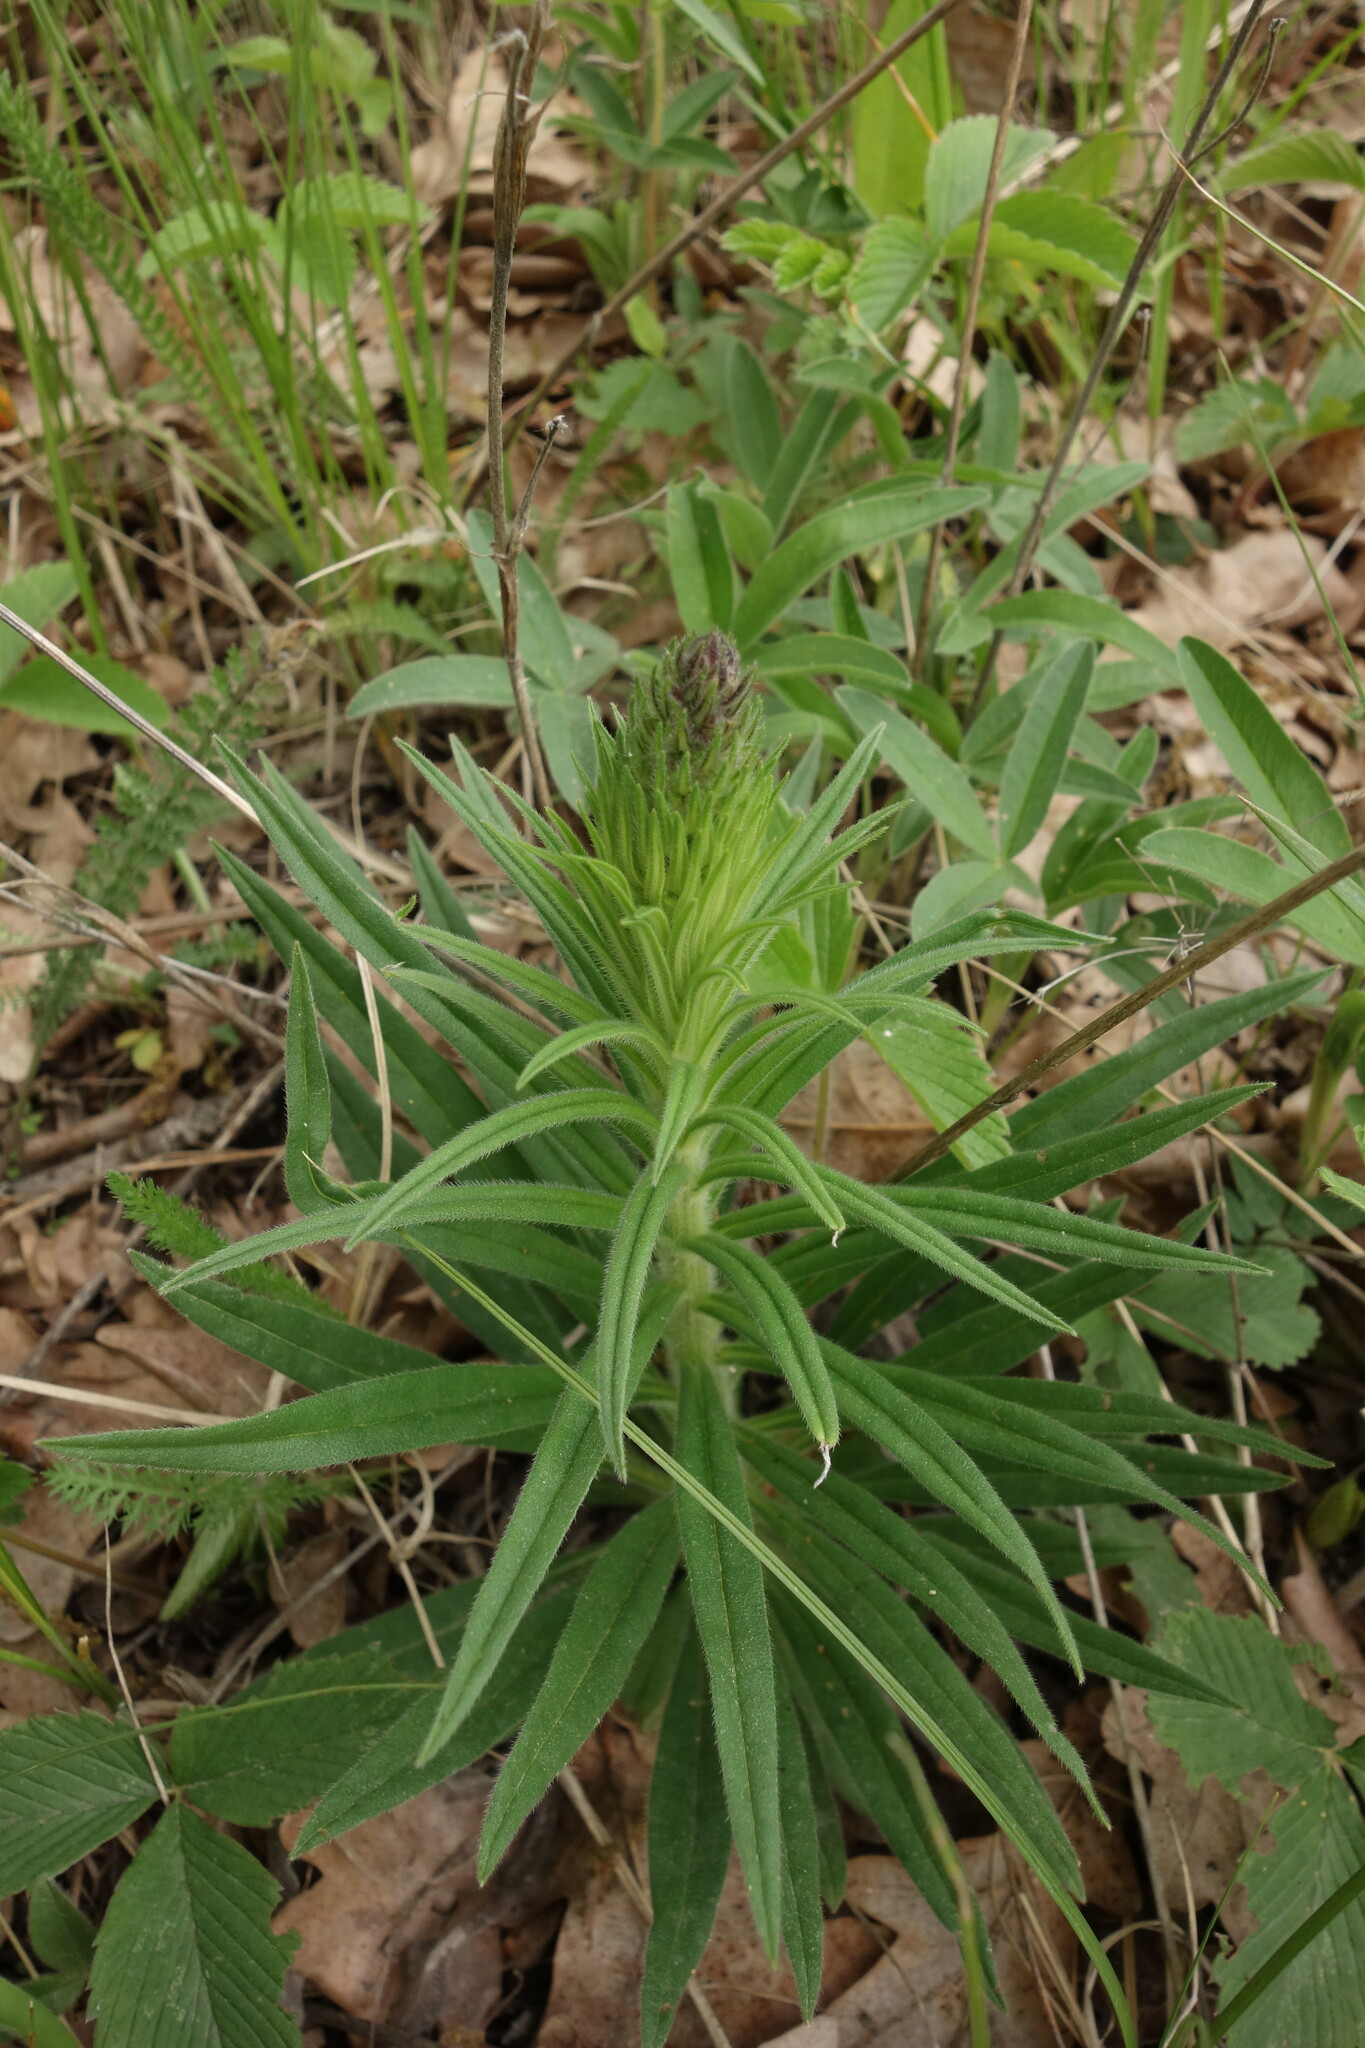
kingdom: Plantae
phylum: Tracheophyta
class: Magnoliopsida
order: Boraginales
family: Boraginaceae
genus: Pontechium
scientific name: Pontechium maculatum
